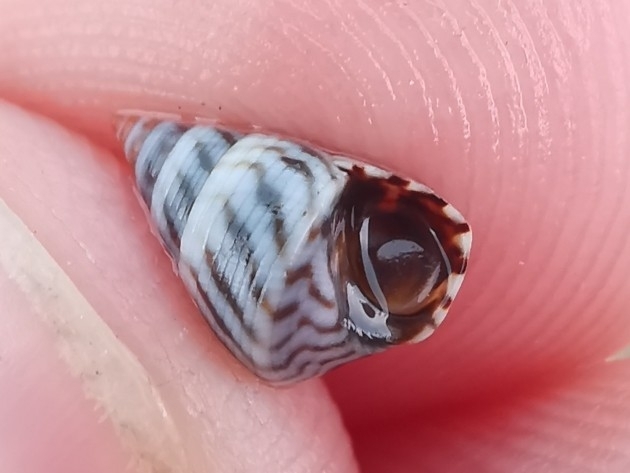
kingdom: Animalia
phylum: Mollusca
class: Gastropoda
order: Littorinimorpha
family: Littorinidae
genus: Echinolittorina
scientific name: Echinolittorina ziczac
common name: Zebra periwinkle
